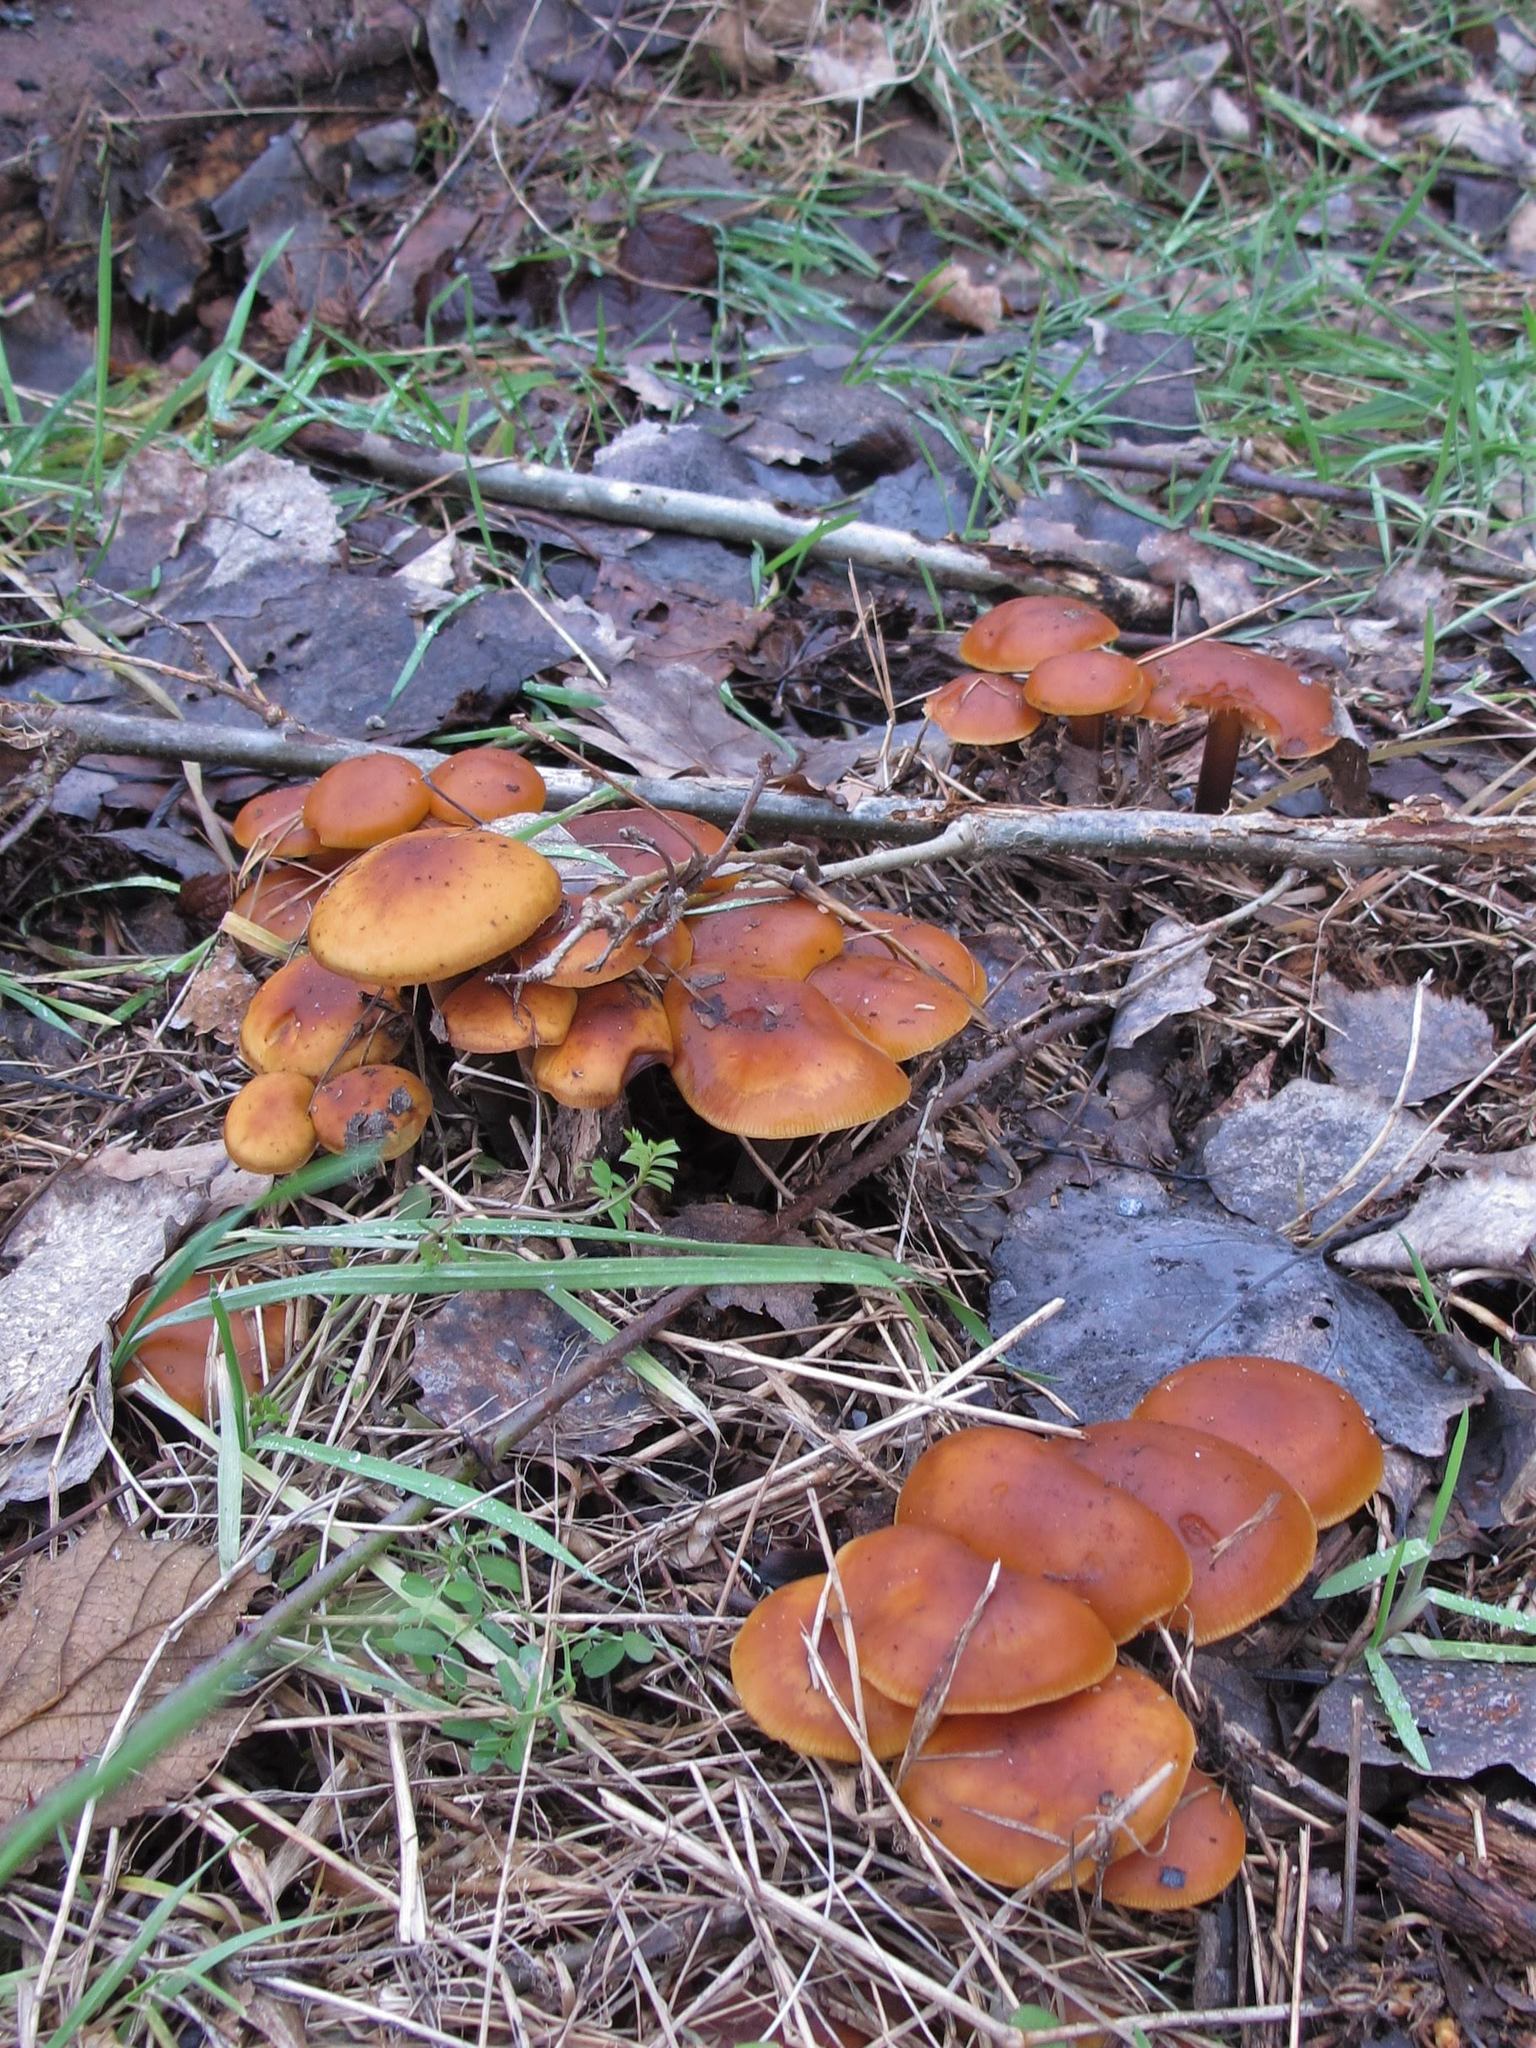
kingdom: Fungi
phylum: Basidiomycota
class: Agaricomycetes
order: Agaricales
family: Physalacriaceae
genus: Flammulina
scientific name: Flammulina
